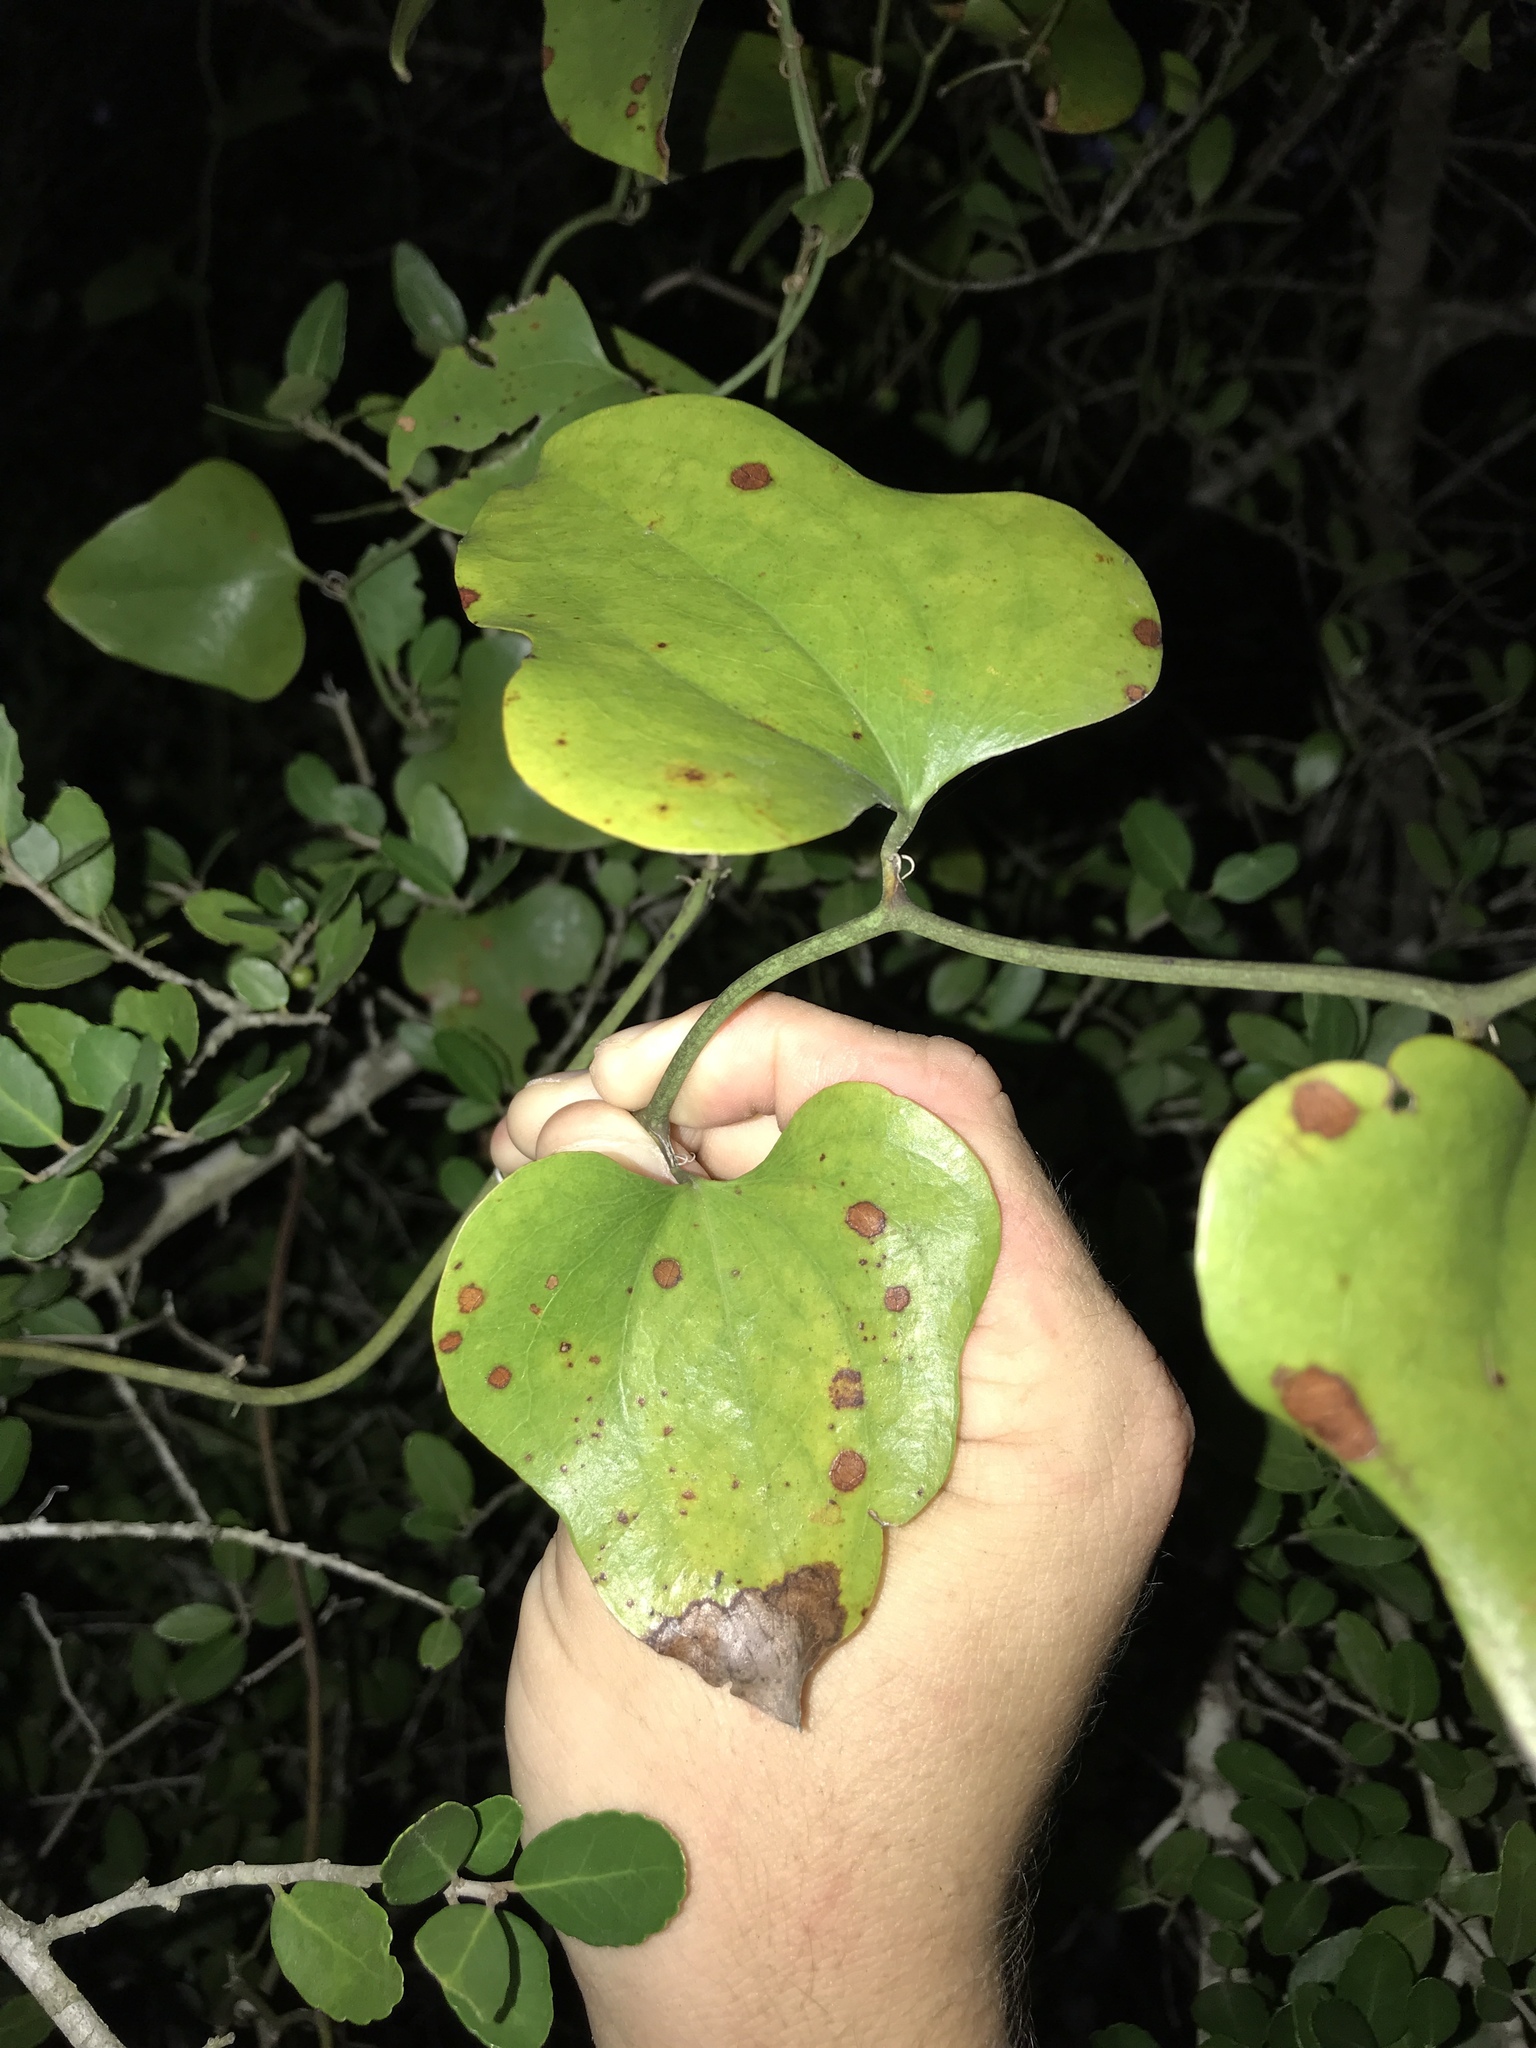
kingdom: Plantae
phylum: Tracheophyta
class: Liliopsida
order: Liliales
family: Smilacaceae
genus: Smilax
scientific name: Smilax bona-nox
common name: Catbrier
